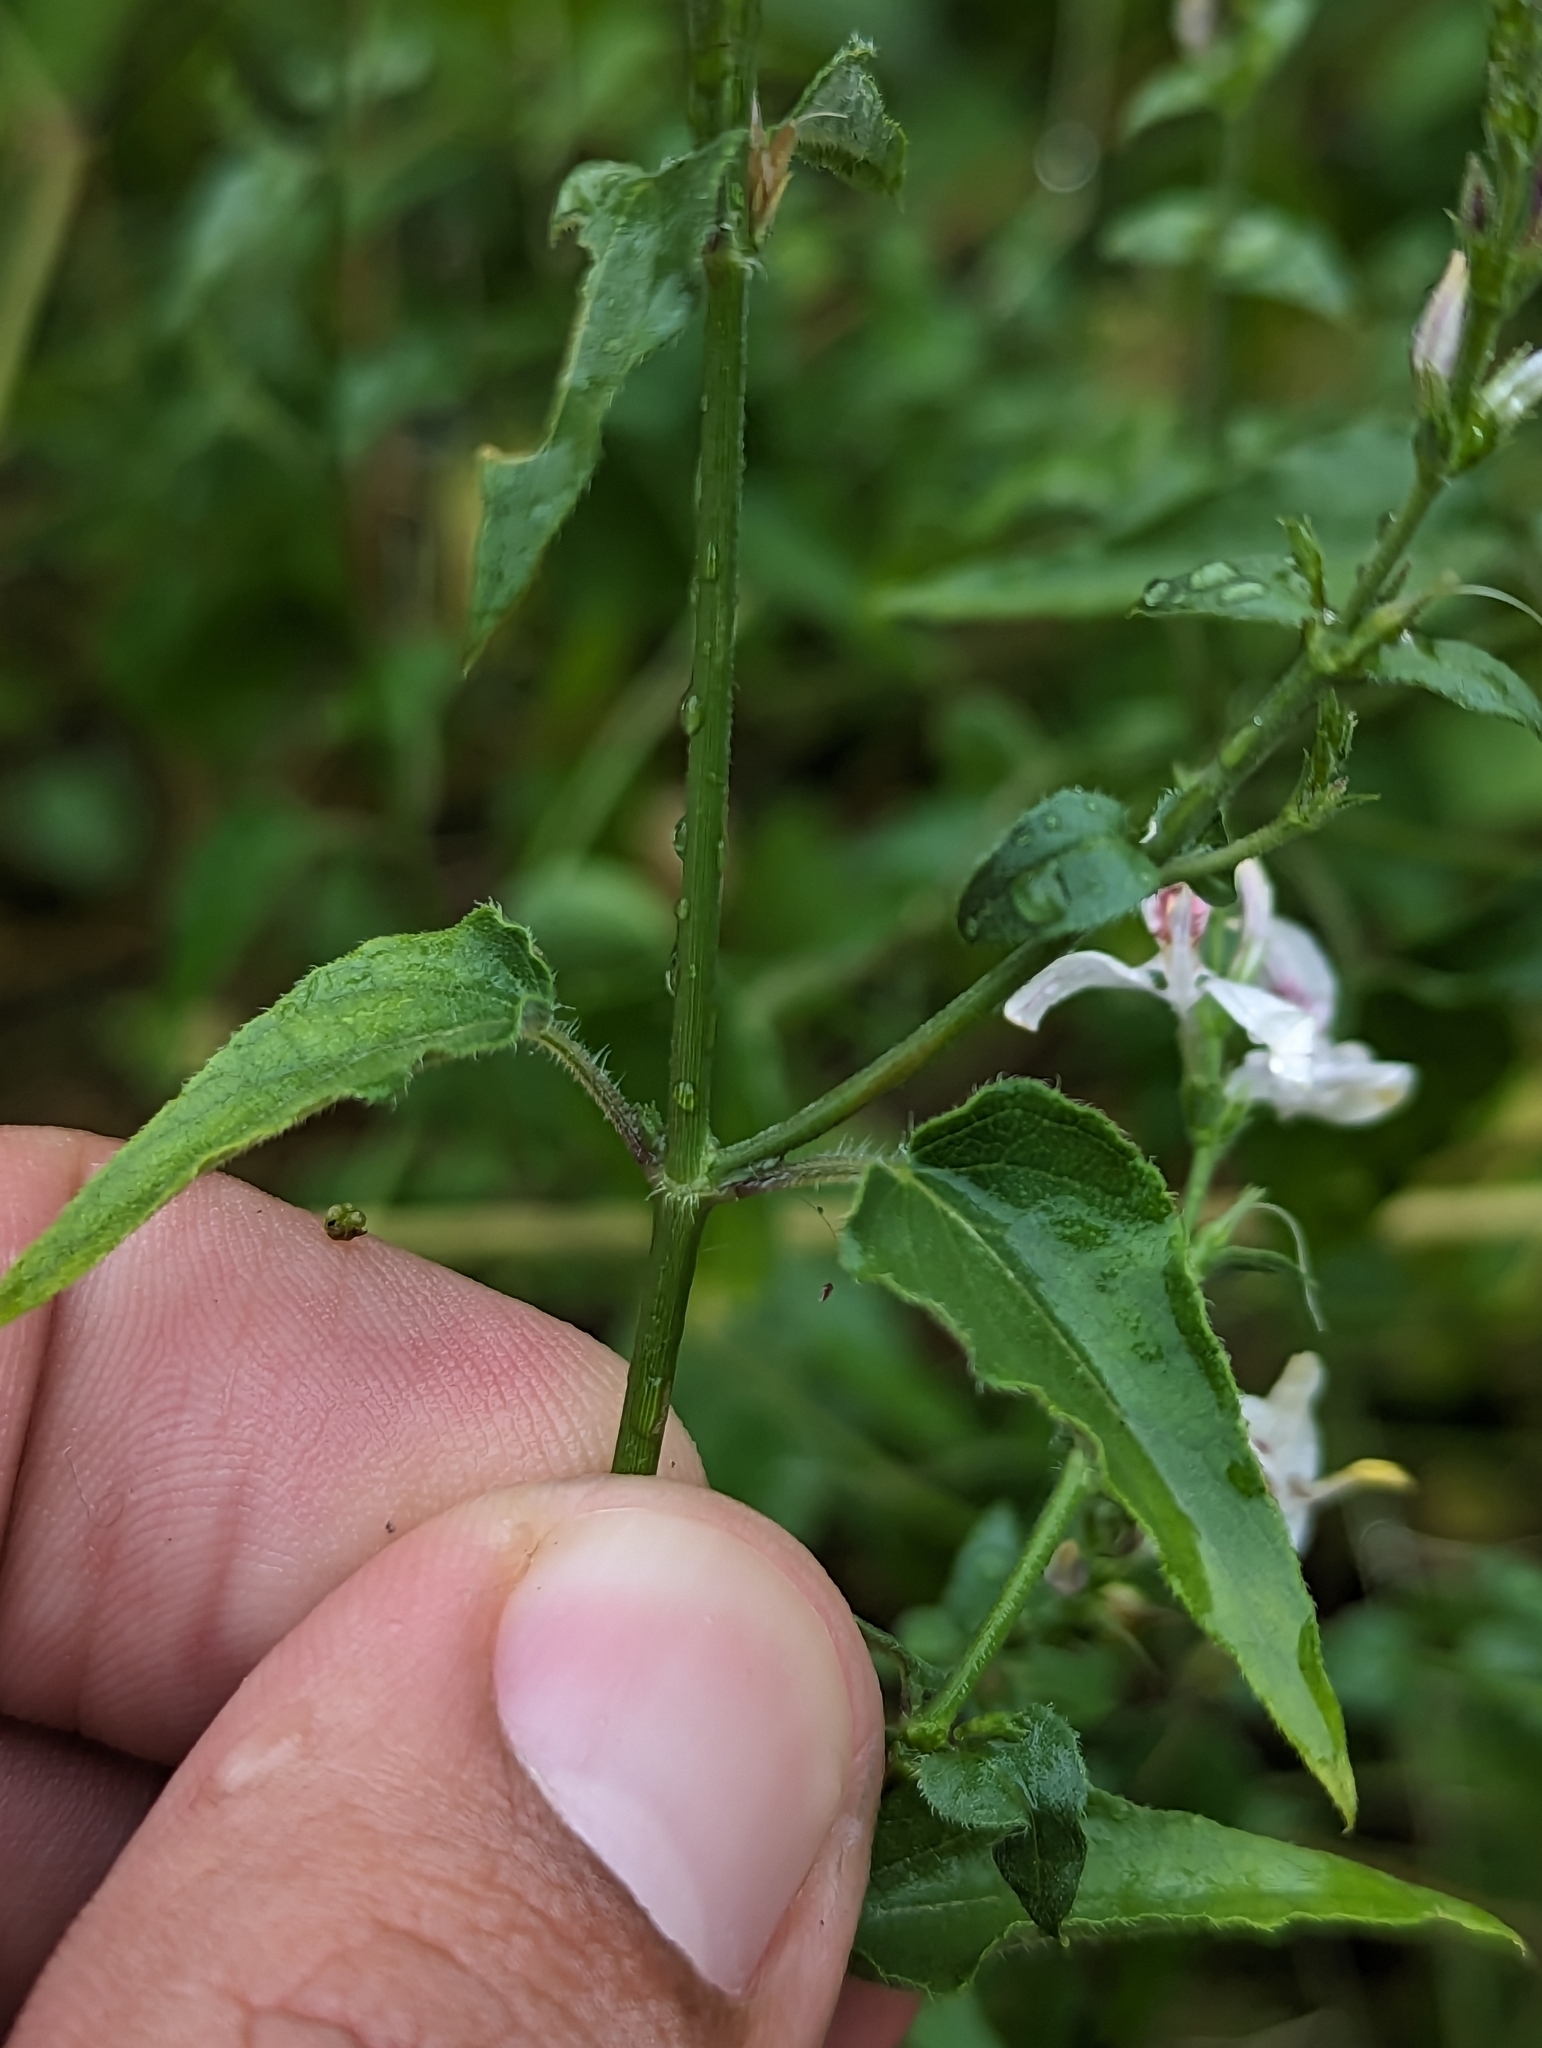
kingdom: Plantae
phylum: Tracheophyta
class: Magnoliopsida
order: Lamiales
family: Acanthaceae
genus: Carlowrightia
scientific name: Carlowrightia arizonica
